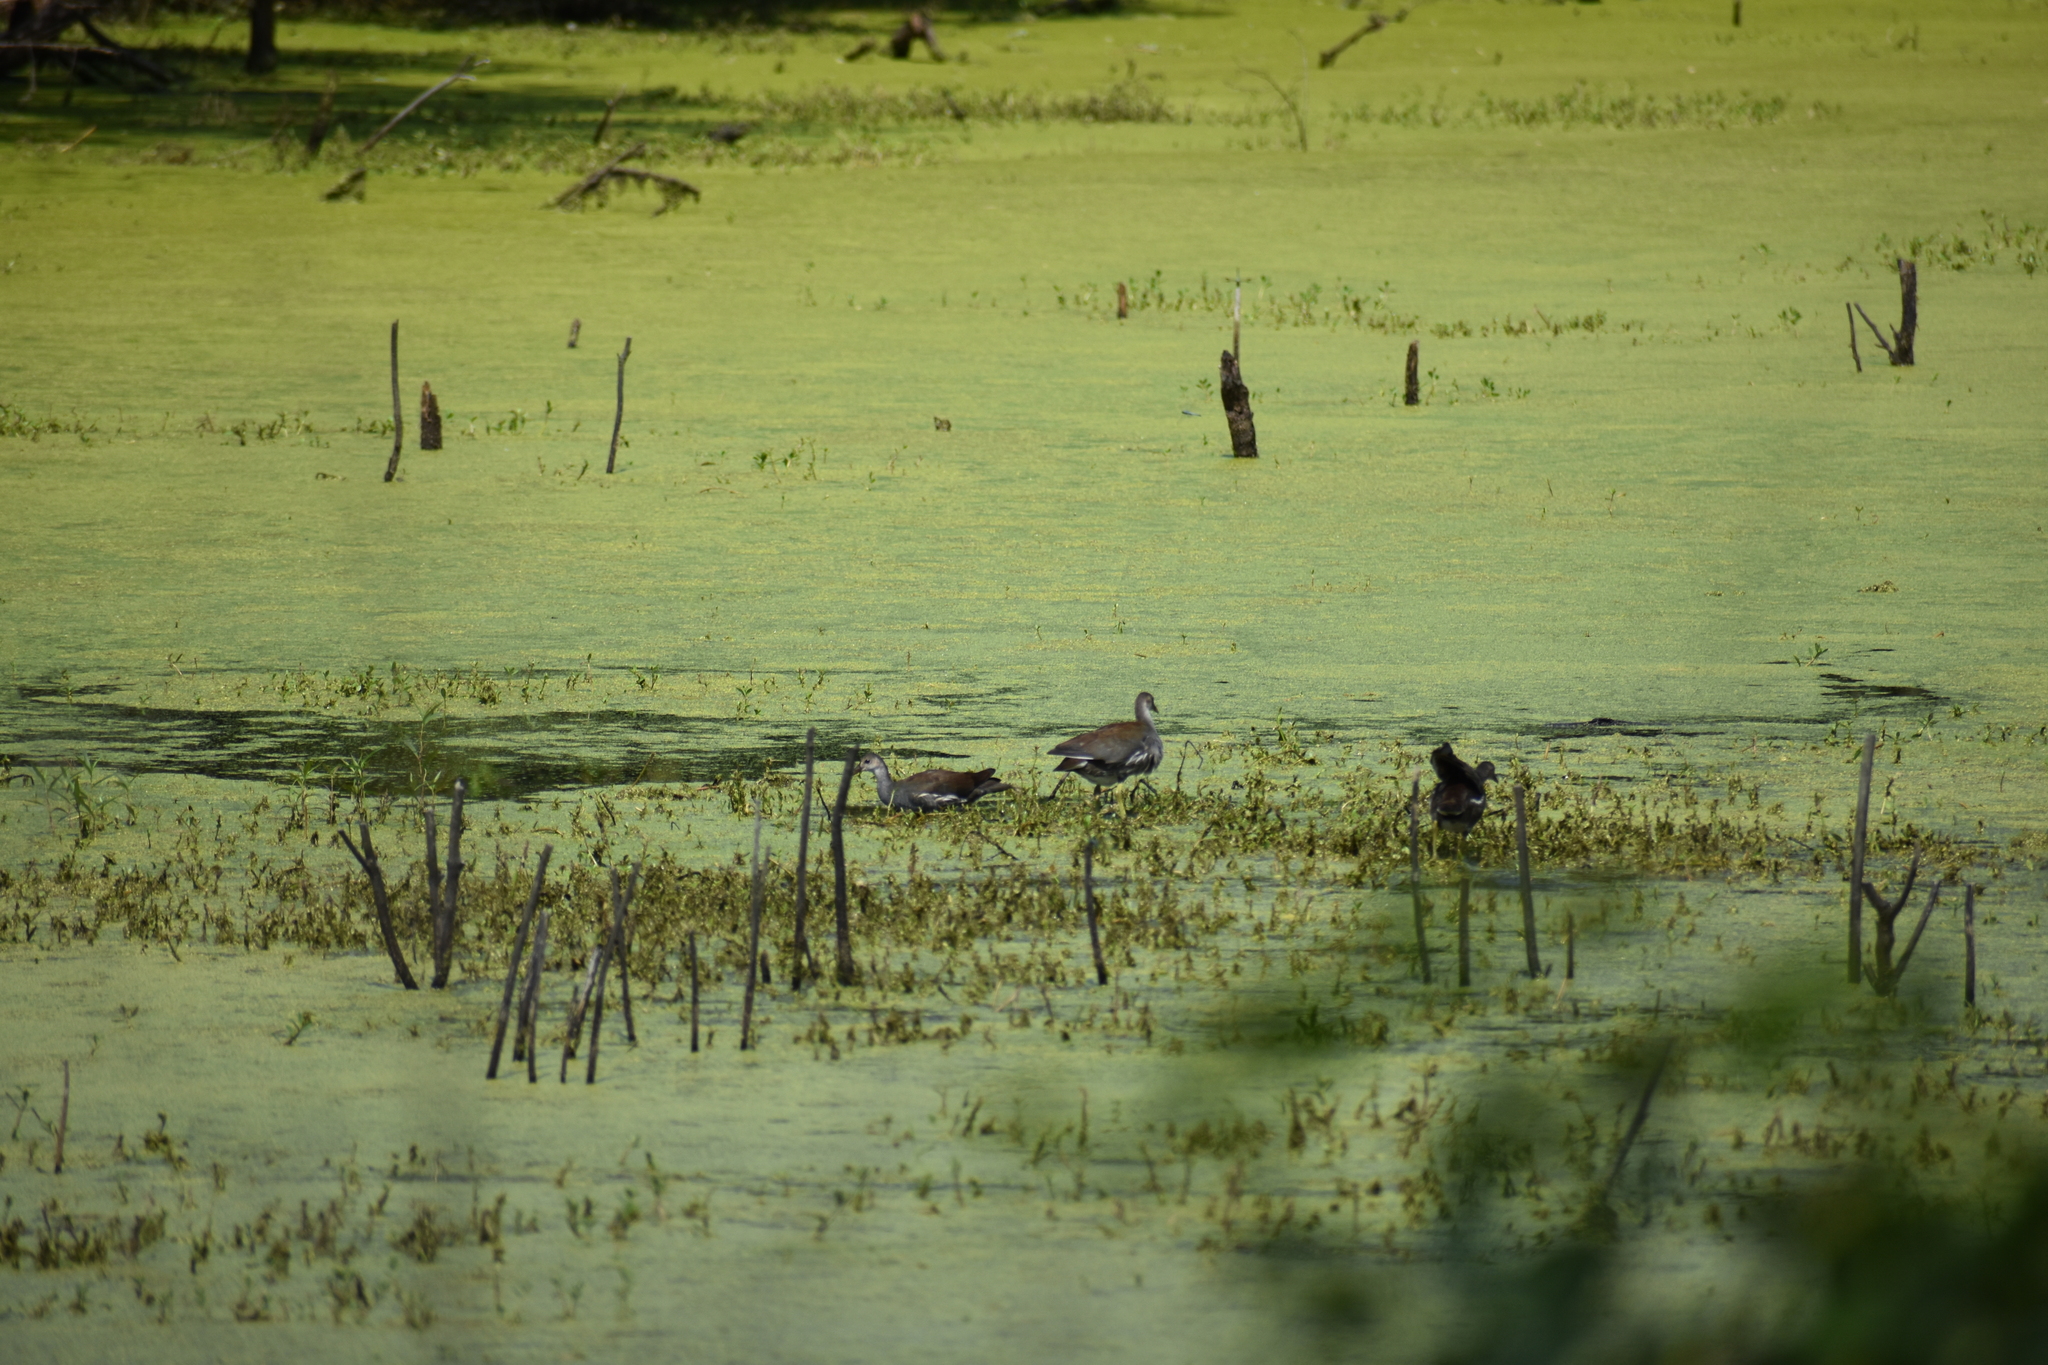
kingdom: Animalia
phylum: Chordata
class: Aves
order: Gruiformes
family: Rallidae
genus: Gallinula
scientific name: Gallinula chloropus
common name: Common moorhen
